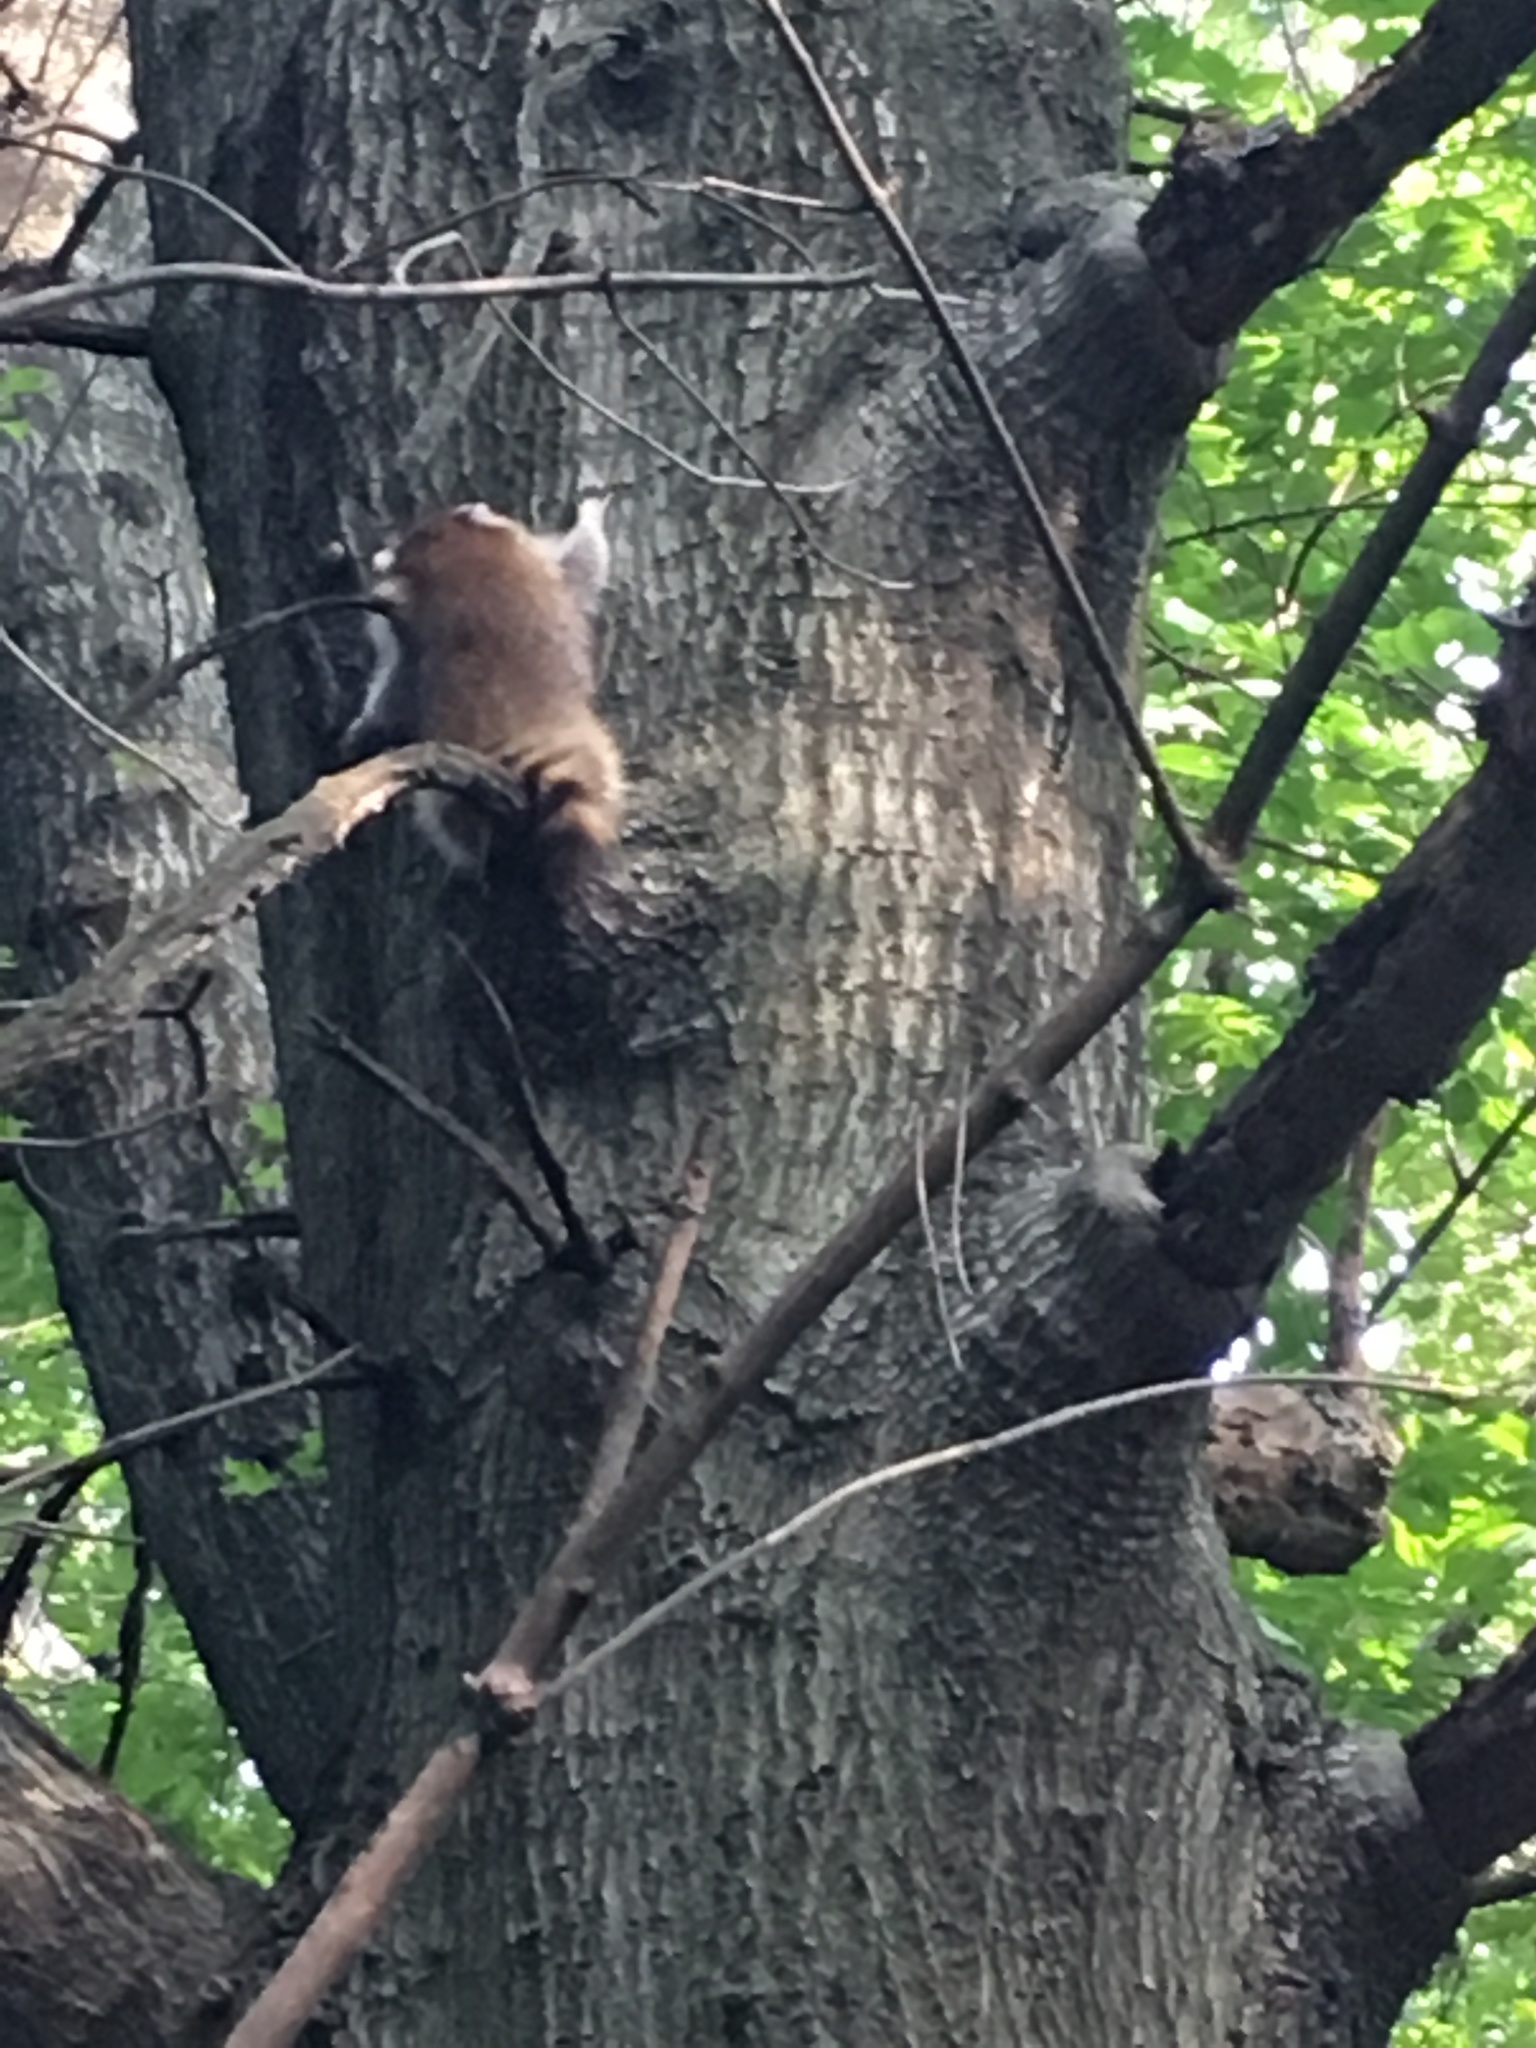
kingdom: Animalia
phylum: Chordata
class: Mammalia
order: Carnivora
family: Procyonidae
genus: Procyon
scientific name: Procyon lotor
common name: Raccoon
